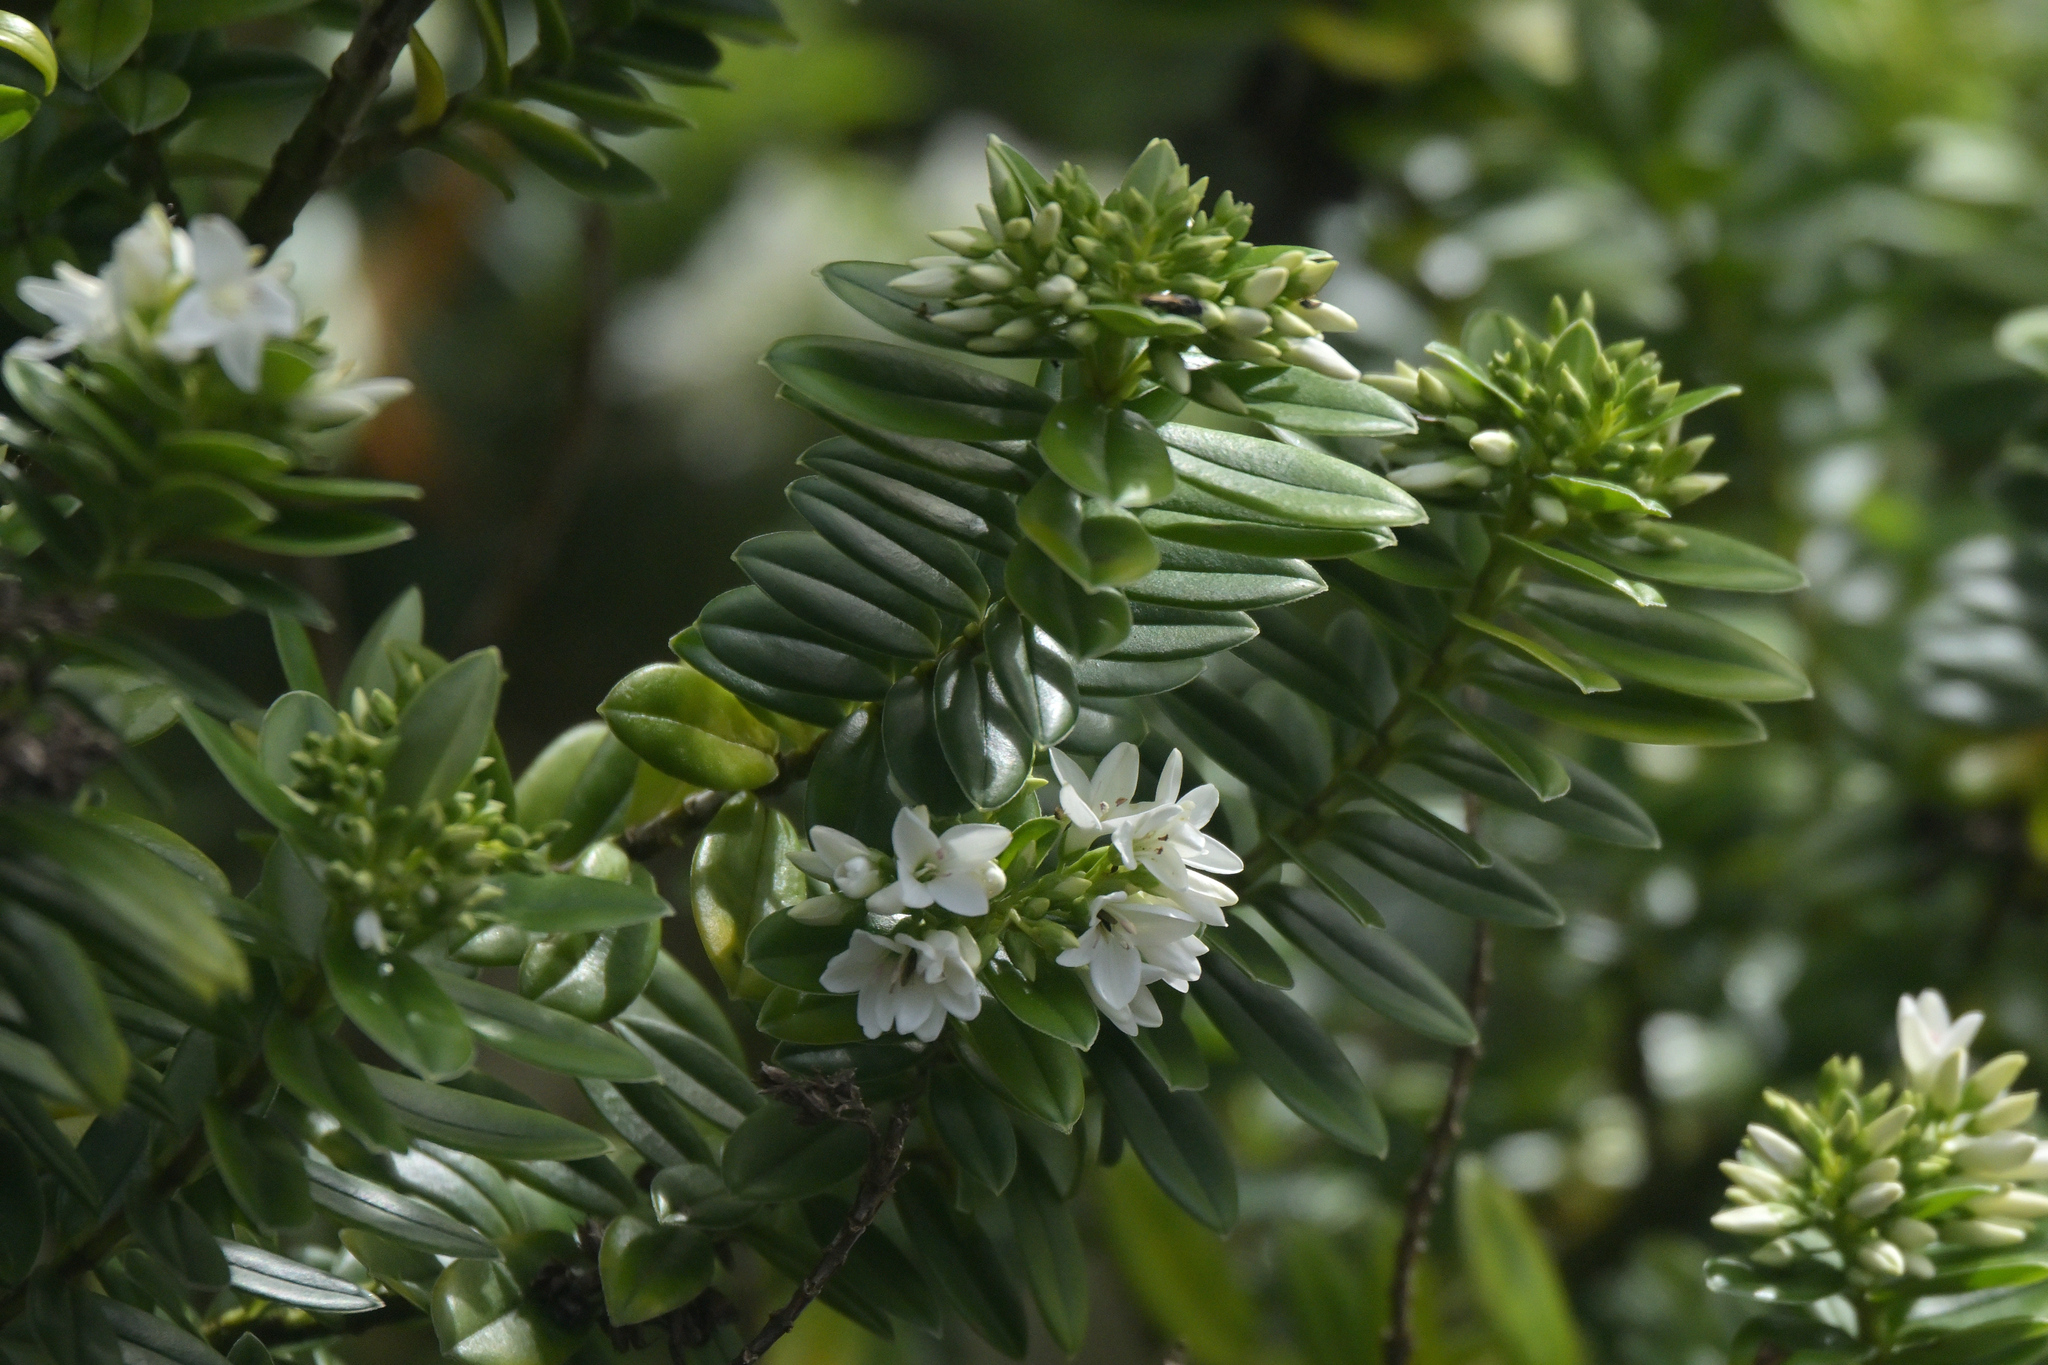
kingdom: Plantae
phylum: Tracheophyta
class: Magnoliopsida
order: Lamiales
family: Plantaginaceae
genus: Veronica
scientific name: Veronica elliptica
